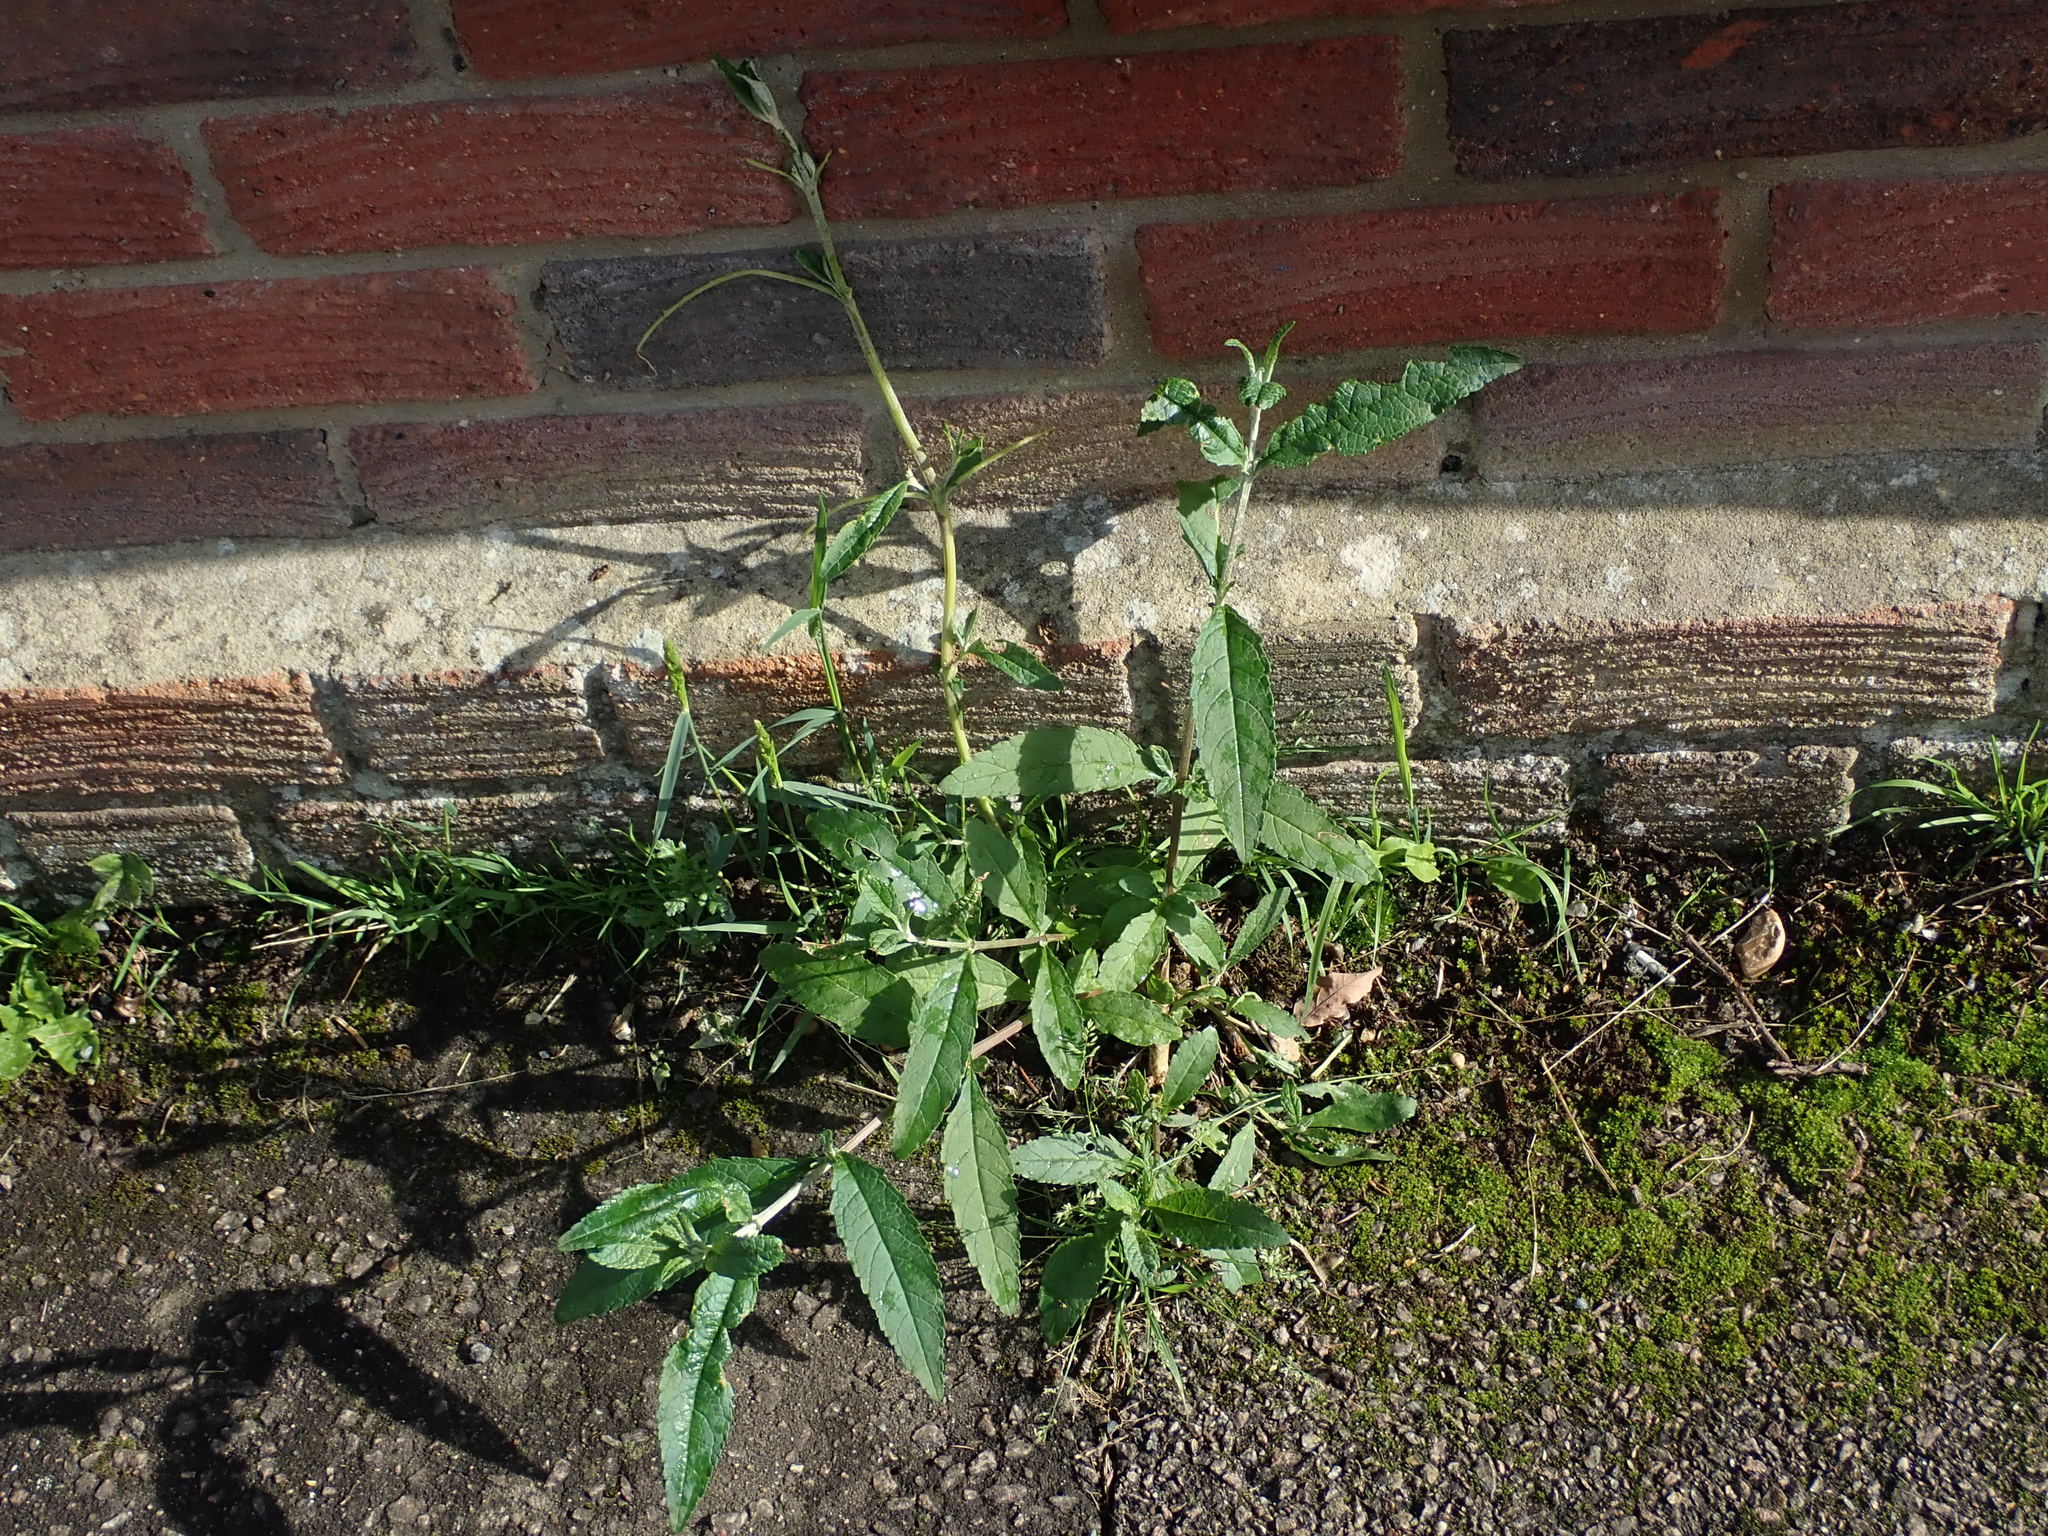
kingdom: Plantae
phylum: Tracheophyta
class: Magnoliopsida
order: Lamiales
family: Scrophulariaceae
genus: Buddleja
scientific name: Buddleja davidii
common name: Butterfly-bush
